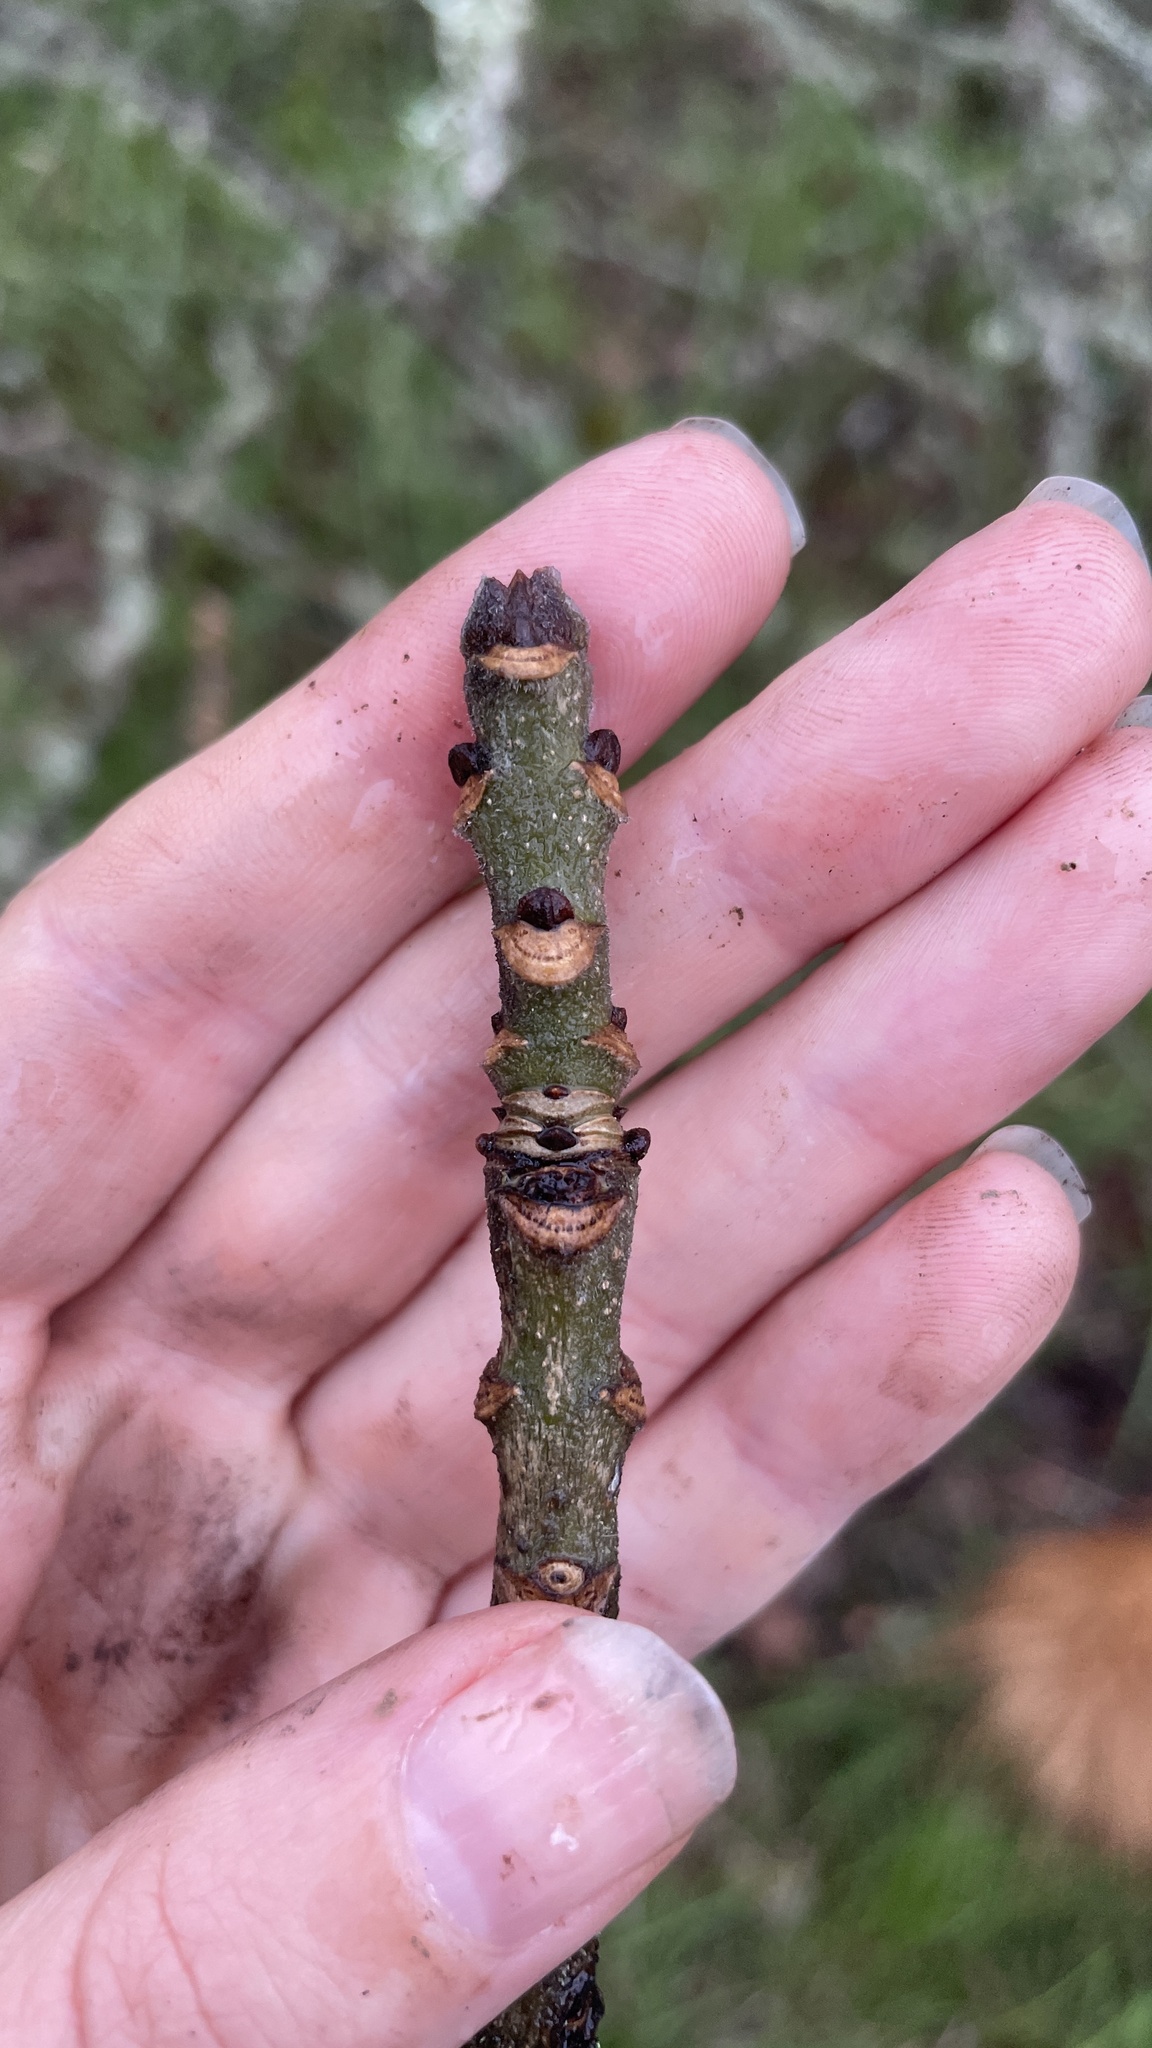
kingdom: Plantae
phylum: Tracheophyta
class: Magnoliopsida
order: Lamiales
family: Oleaceae
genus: Fraxinus
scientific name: Fraxinus latifolia
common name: Oregon ash
